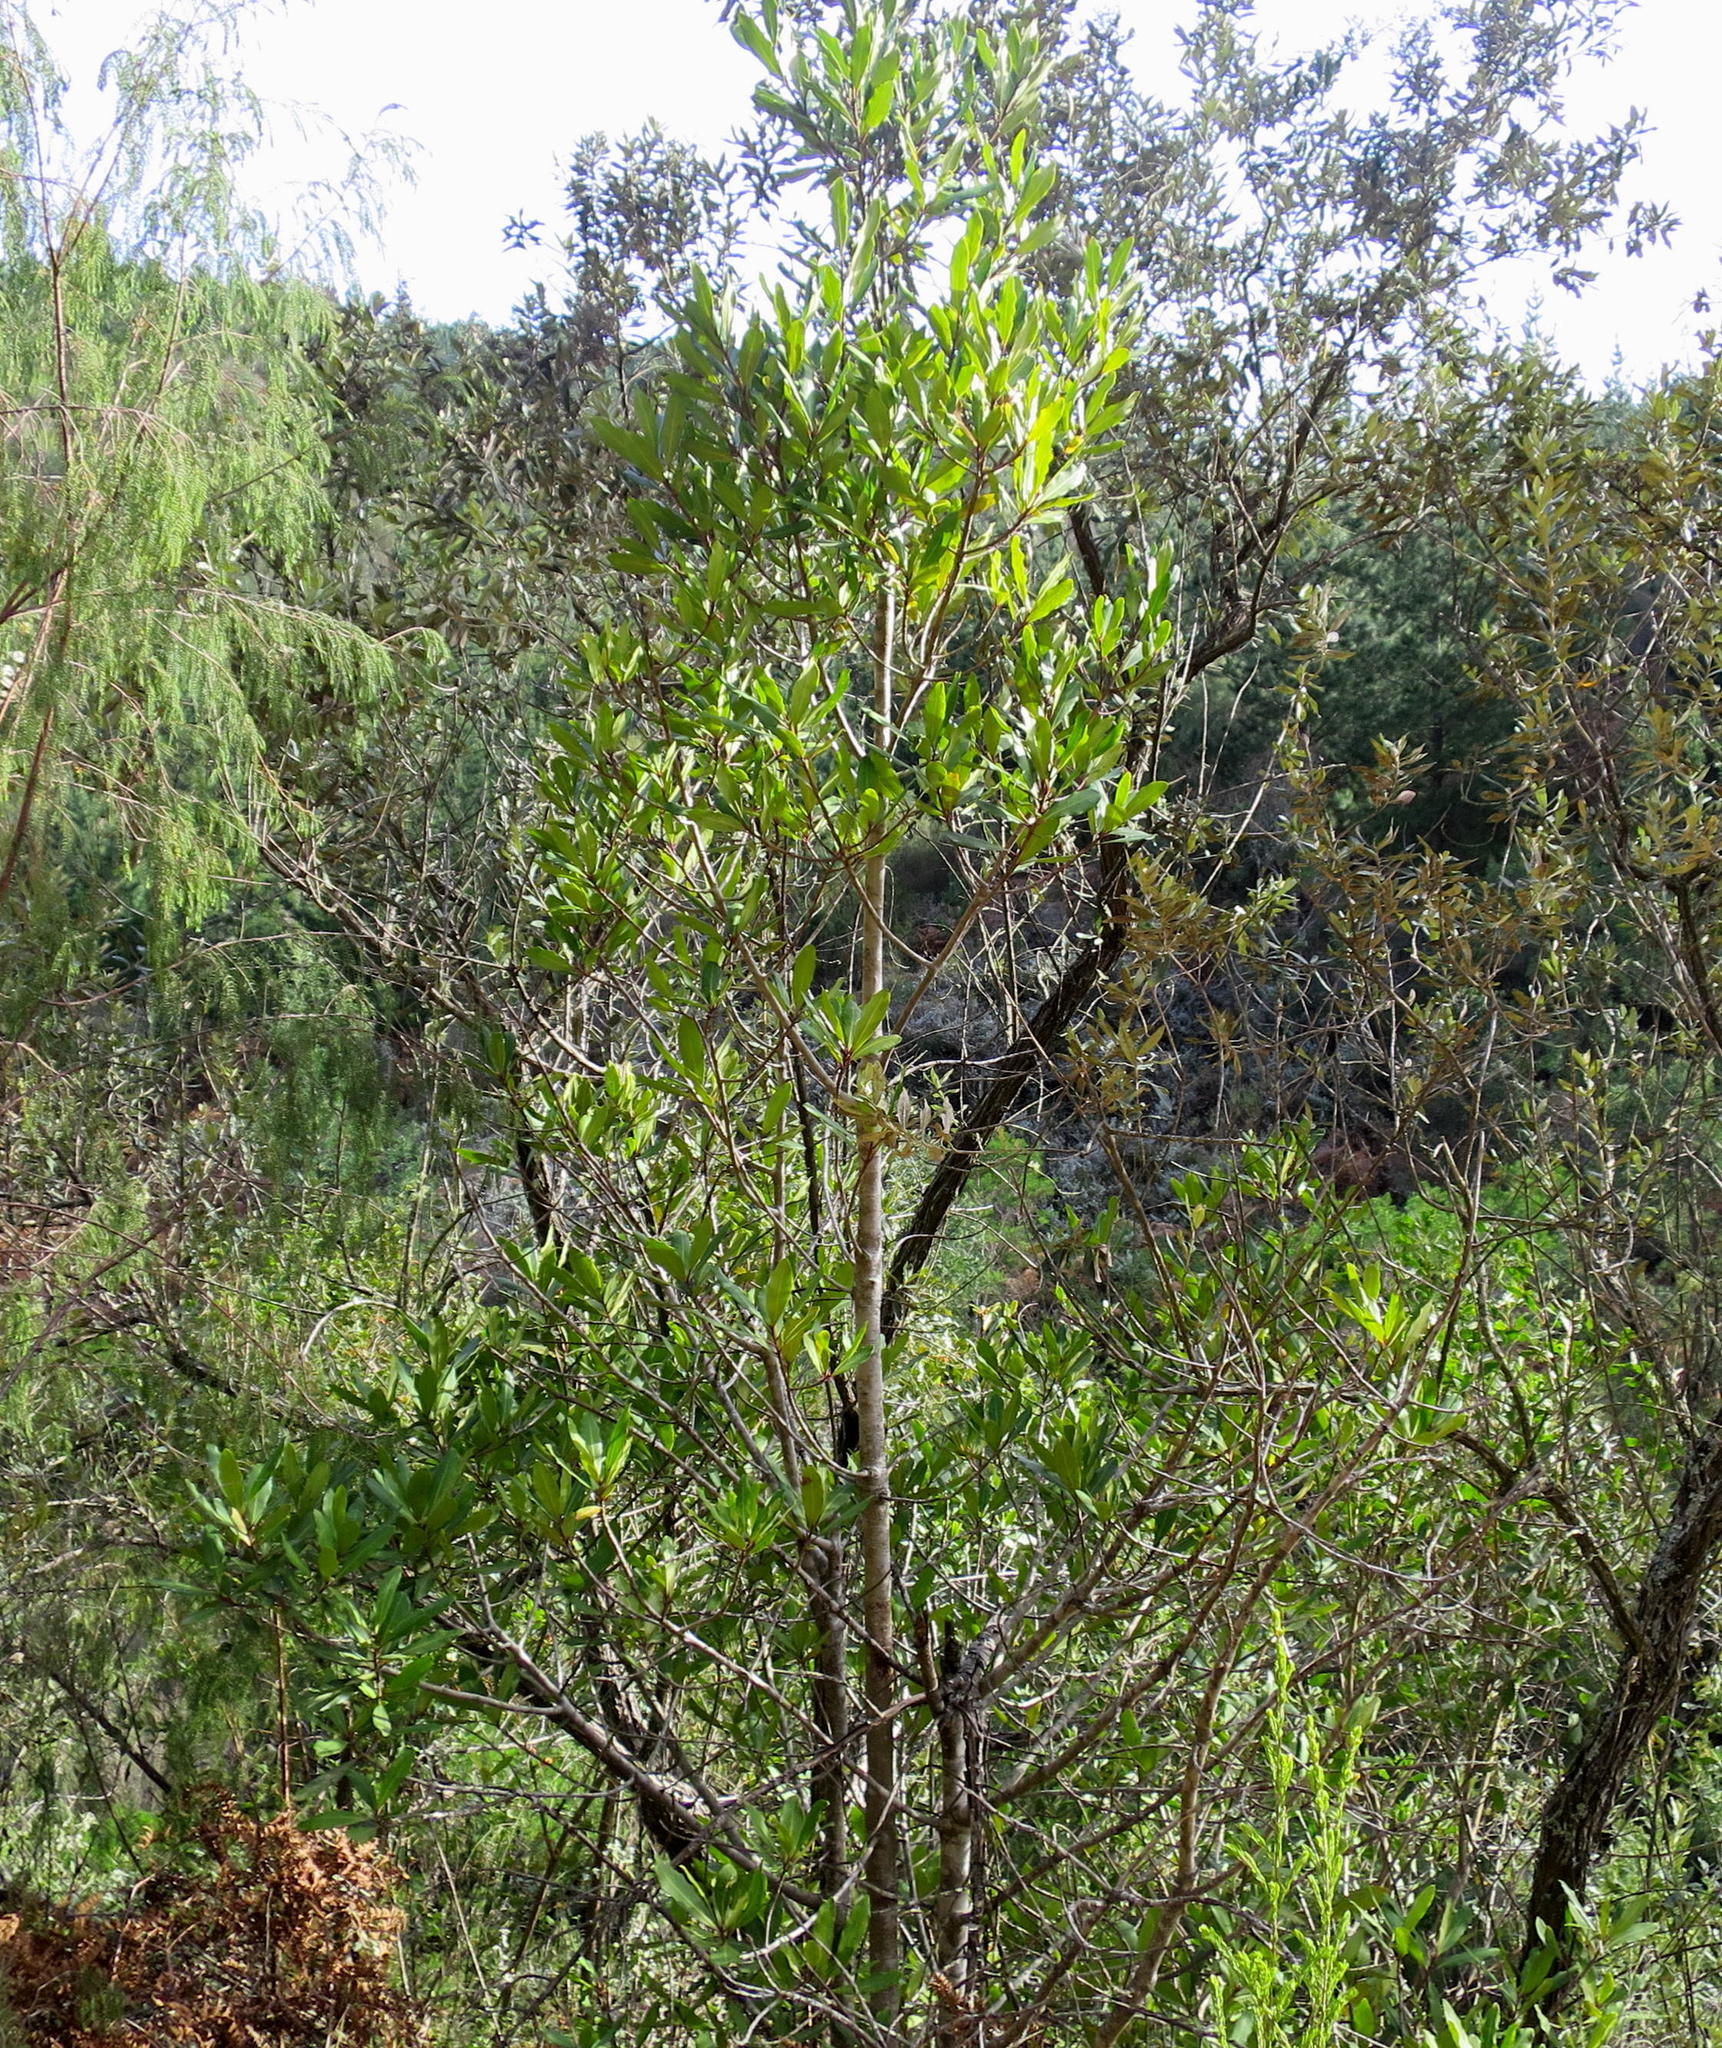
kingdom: Plantae
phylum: Tracheophyta
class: Magnoliopsida
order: Ericales
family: Primulaceae
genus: Myrsine
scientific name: Myrsine melanophloeos
